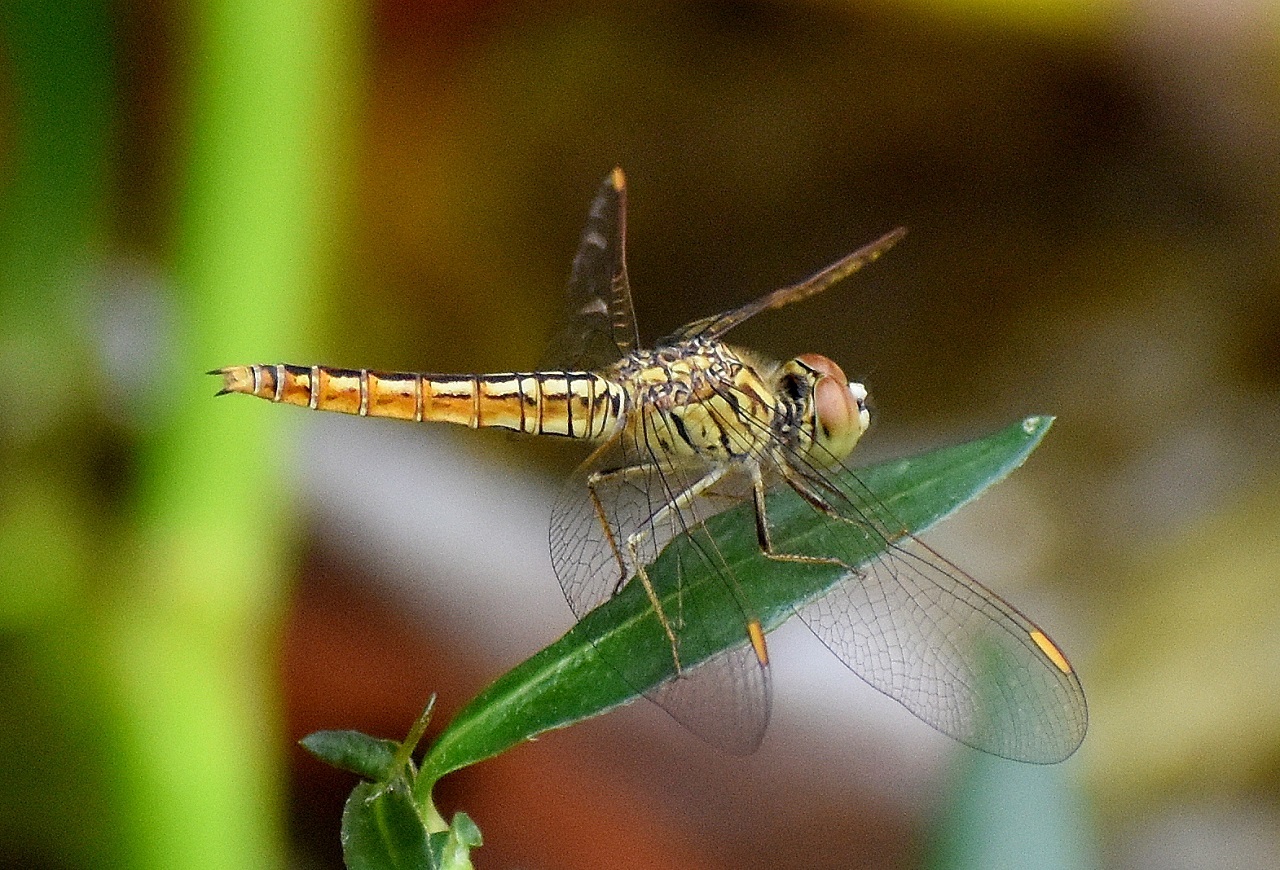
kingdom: Animalia
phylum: Arthropoda
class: Insecta
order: Odonata
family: Libellulidae
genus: Brachythemis
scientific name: Brachythemis contaminata
